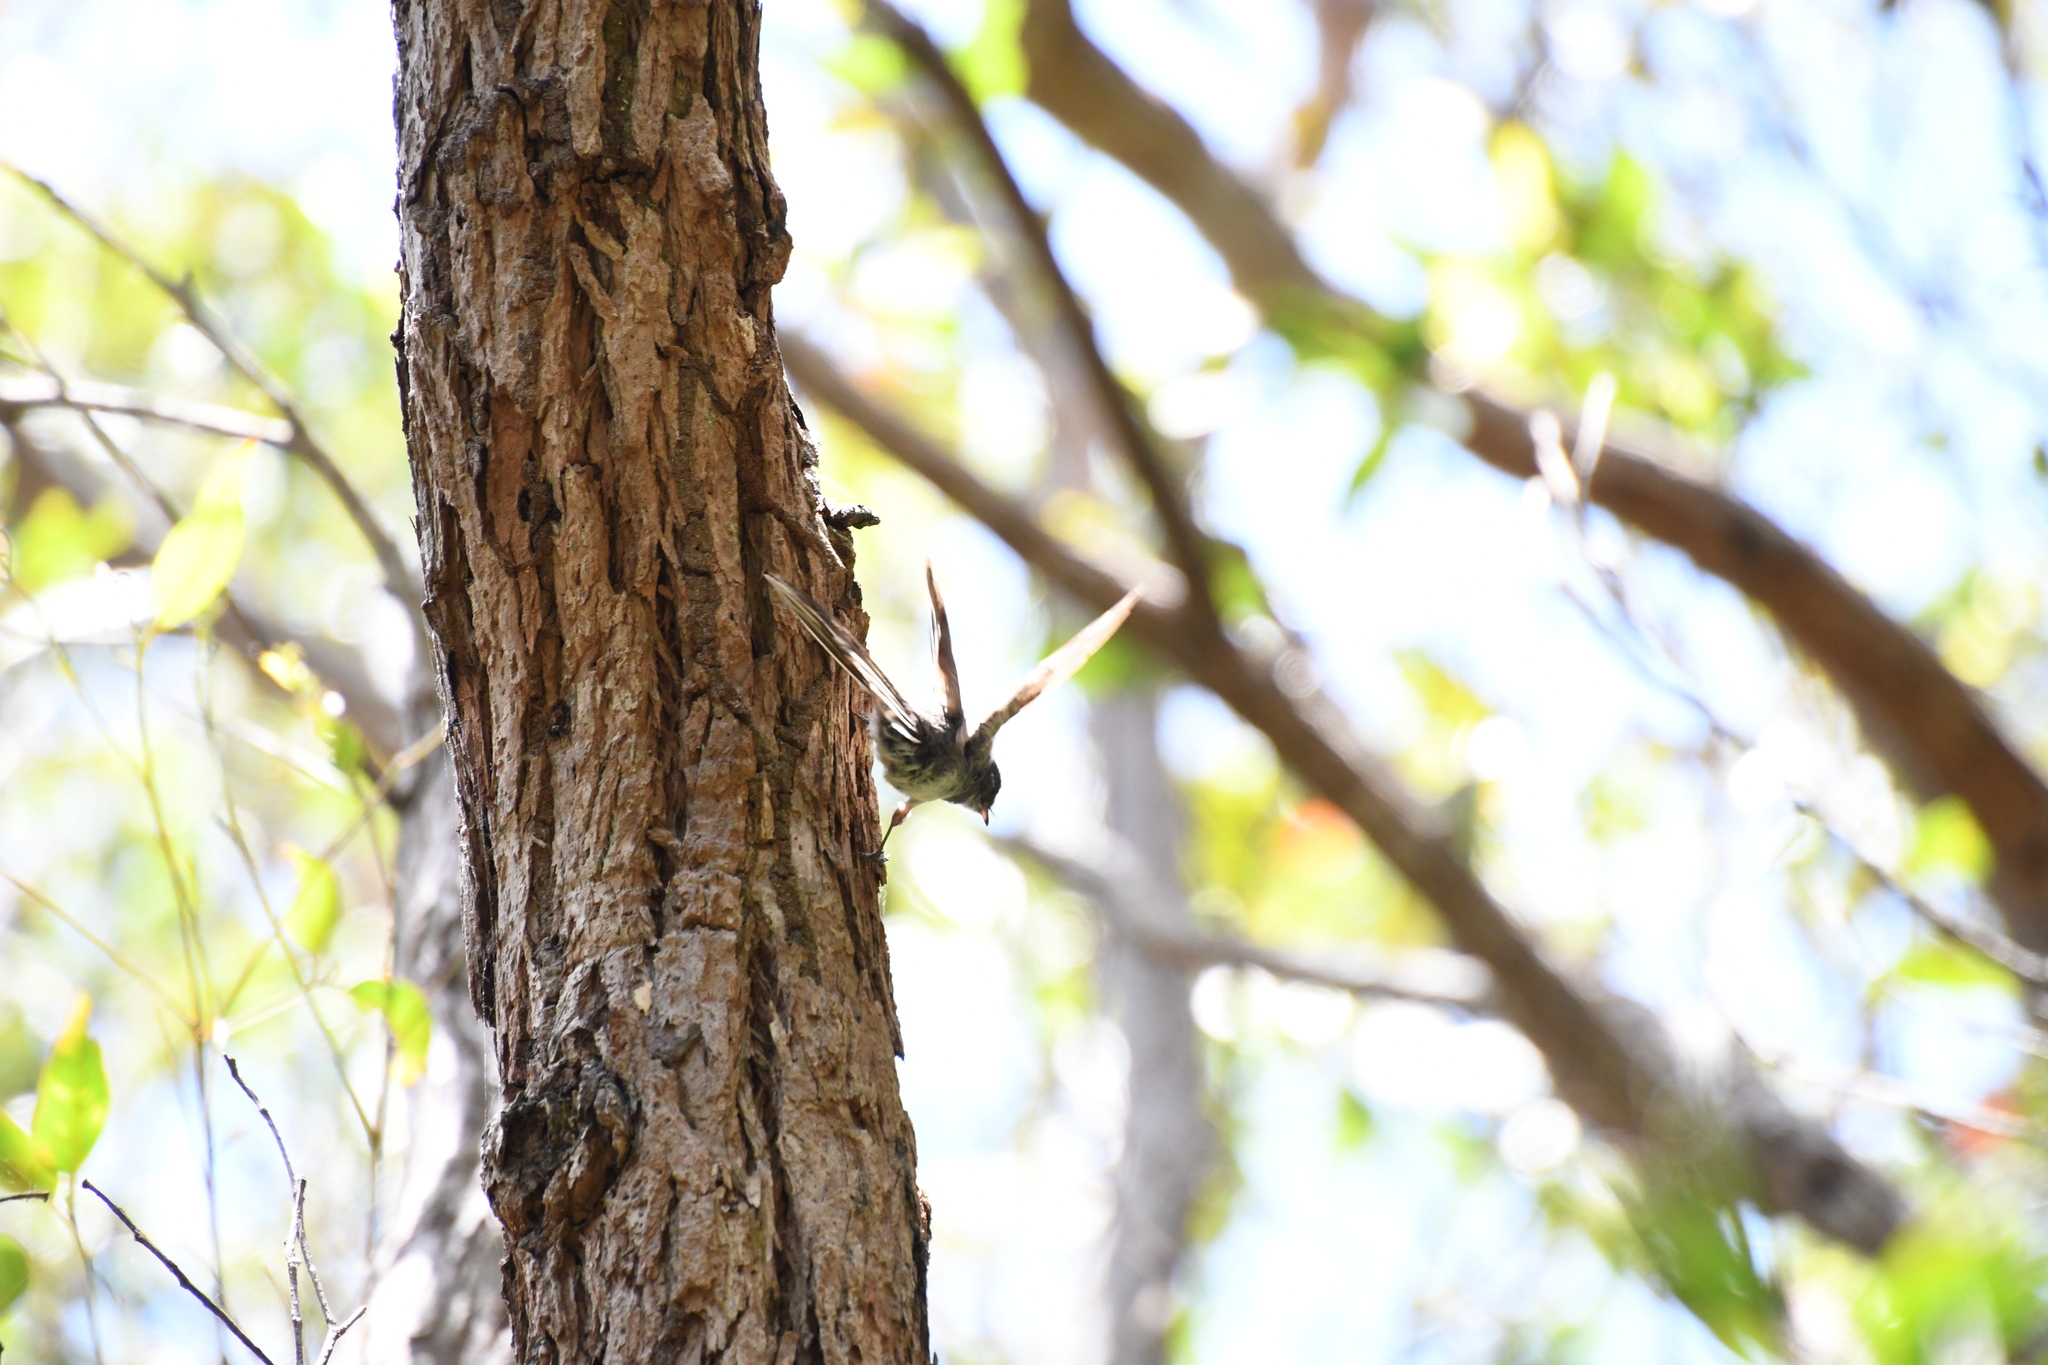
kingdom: Animalia
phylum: Chordata
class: Aves
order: Passeriformes
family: Rhipiduridae
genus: Rhipidura
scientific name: Rhipidura albiscapa
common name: Grey fantail
